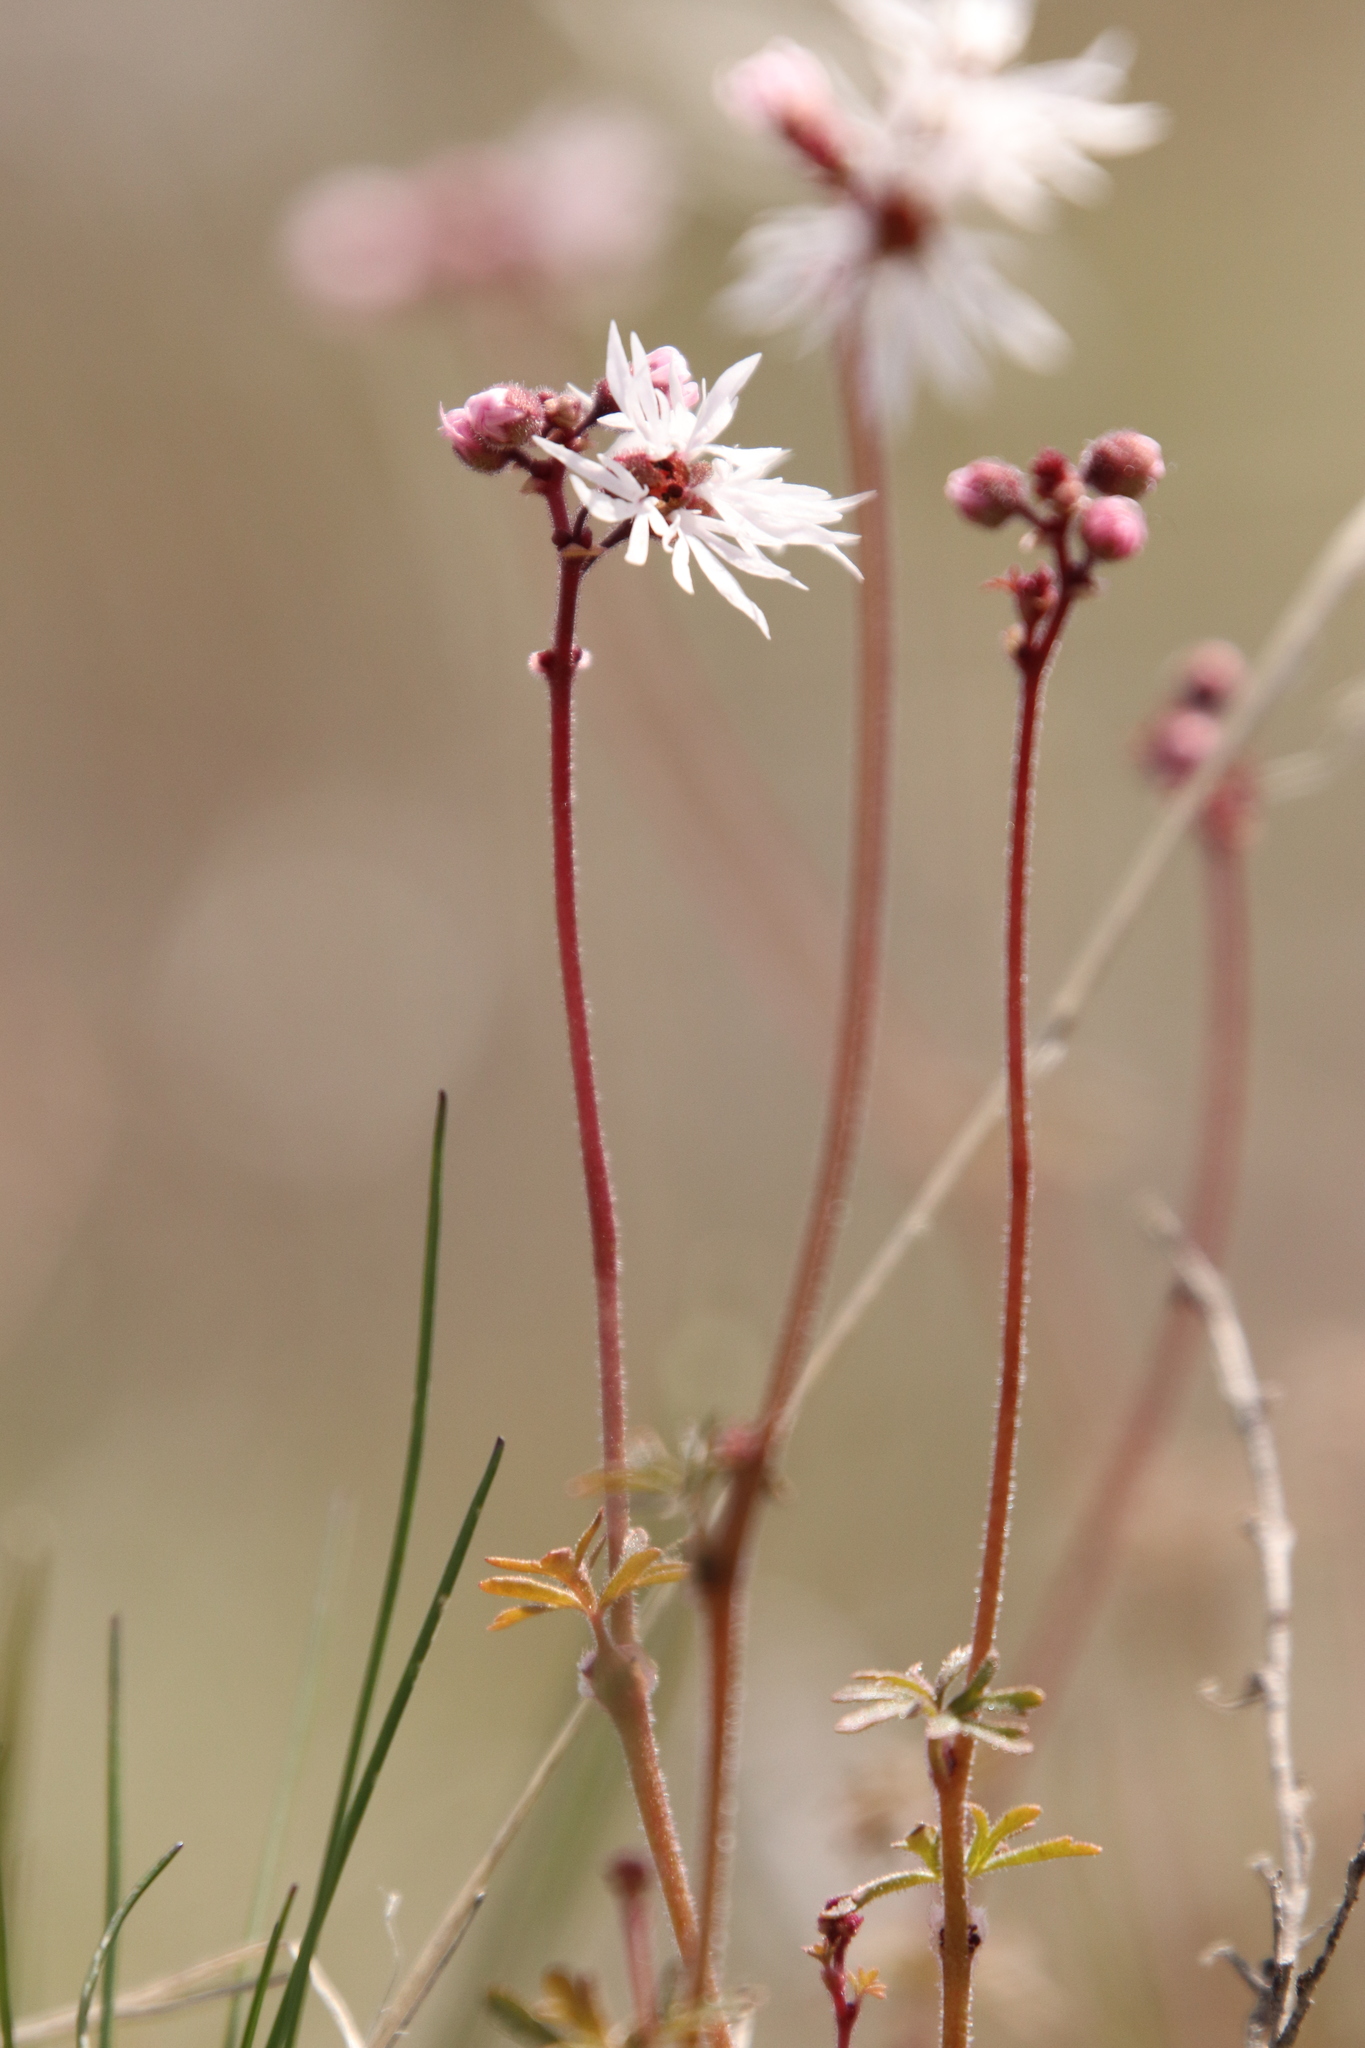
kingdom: Plantae
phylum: Tracheophyta
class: Magnoliopsida
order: Saxifragales
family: Saxifragaceae
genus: Lithophragma
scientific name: Lithophragma glabrum
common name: Bulbous prairie-star
